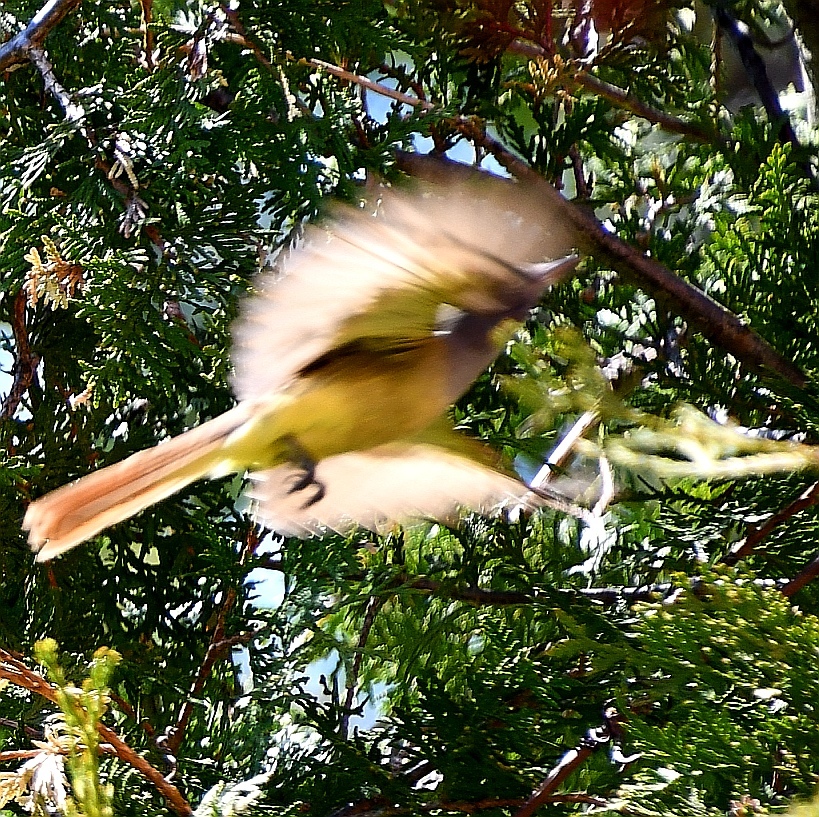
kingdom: Animalia
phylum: Chordata
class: Aves
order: Passeriformes
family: Tyrannidae
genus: Myiarchus
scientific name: Myiarchus crinitus
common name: Great crested flycatcher
